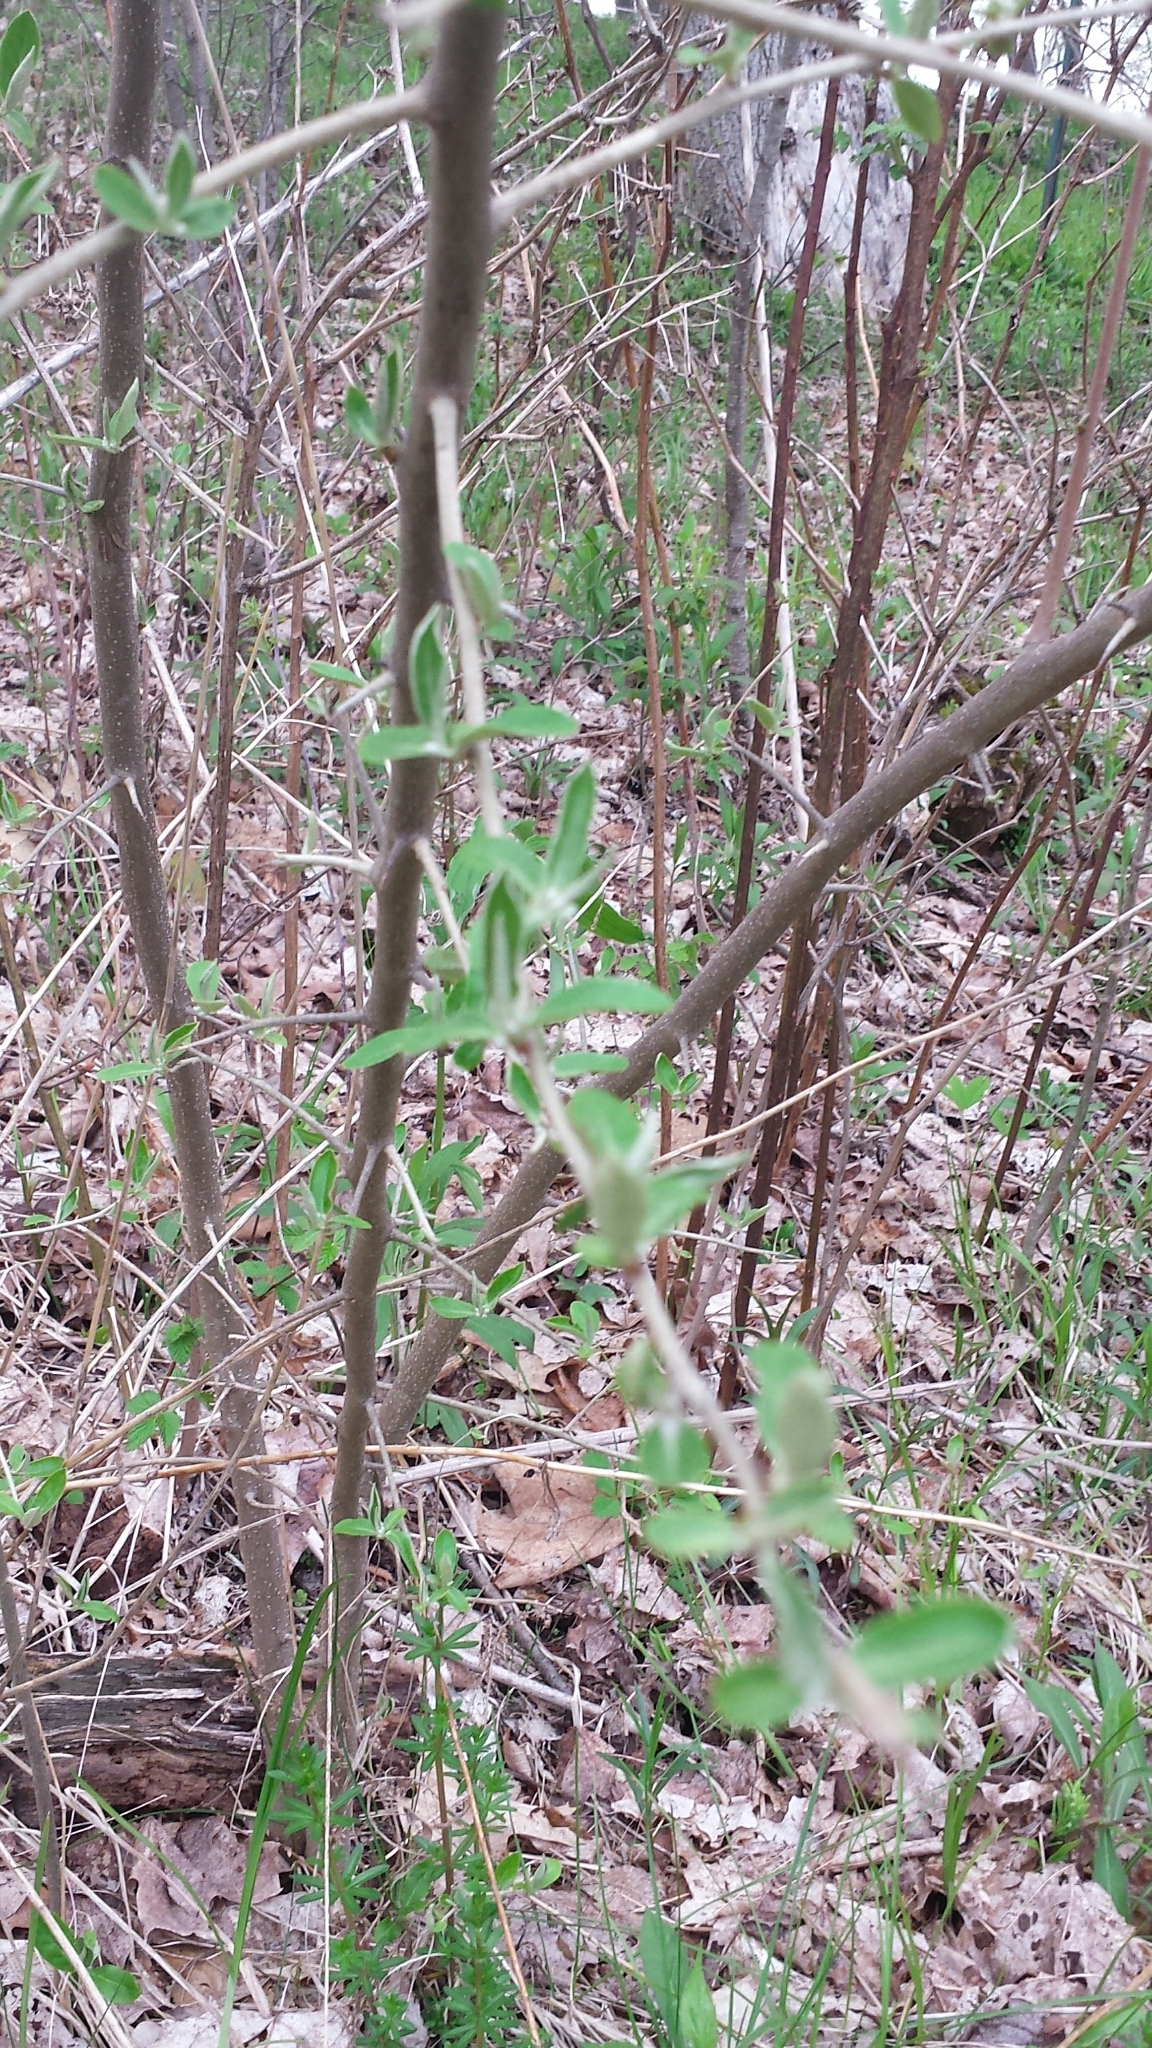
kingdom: Plantae
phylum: Tracheophyta
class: Magnoliopsida
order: Rosales
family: Elaeagnaceae
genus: Elaeagnus
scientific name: Elaeagnus umbellata
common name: Autumn olive
